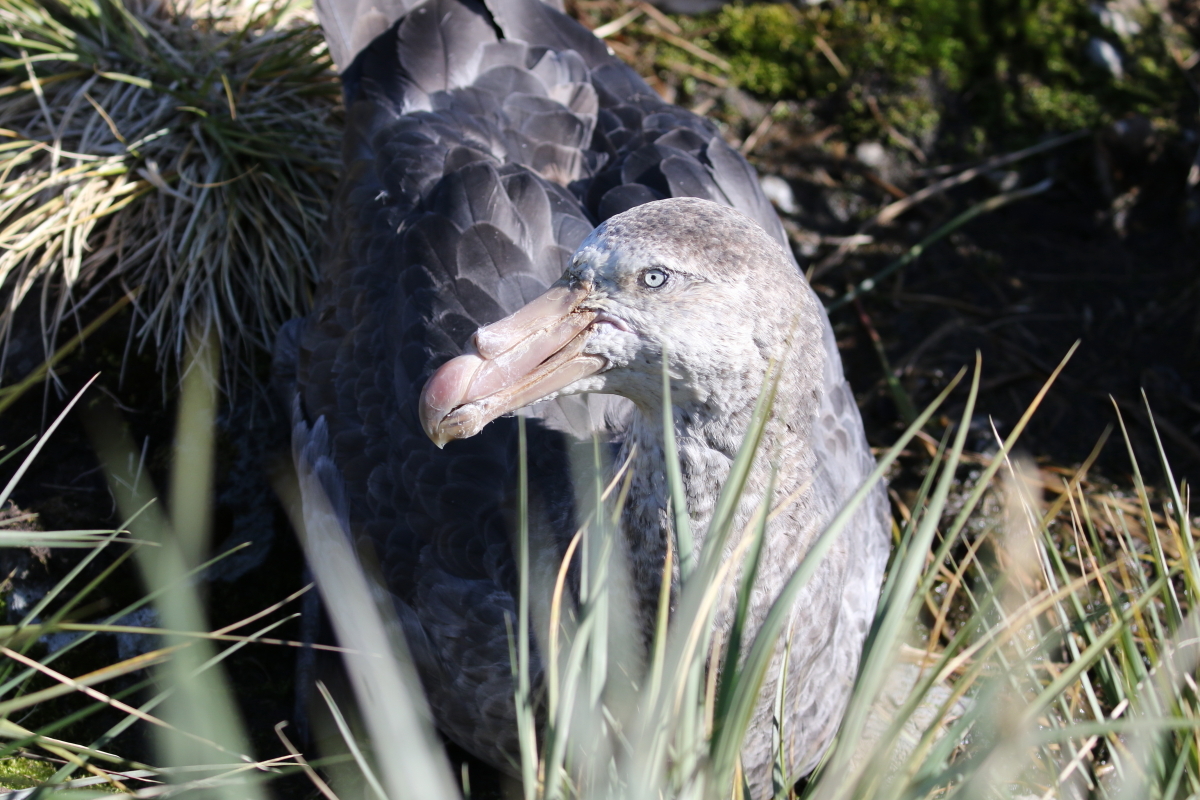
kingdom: Animalia
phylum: Chordata
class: Aves
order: Procellariiformes
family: Procellariidae
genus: Macronectes
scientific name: Macronectes halli
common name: Northern giant petrel
